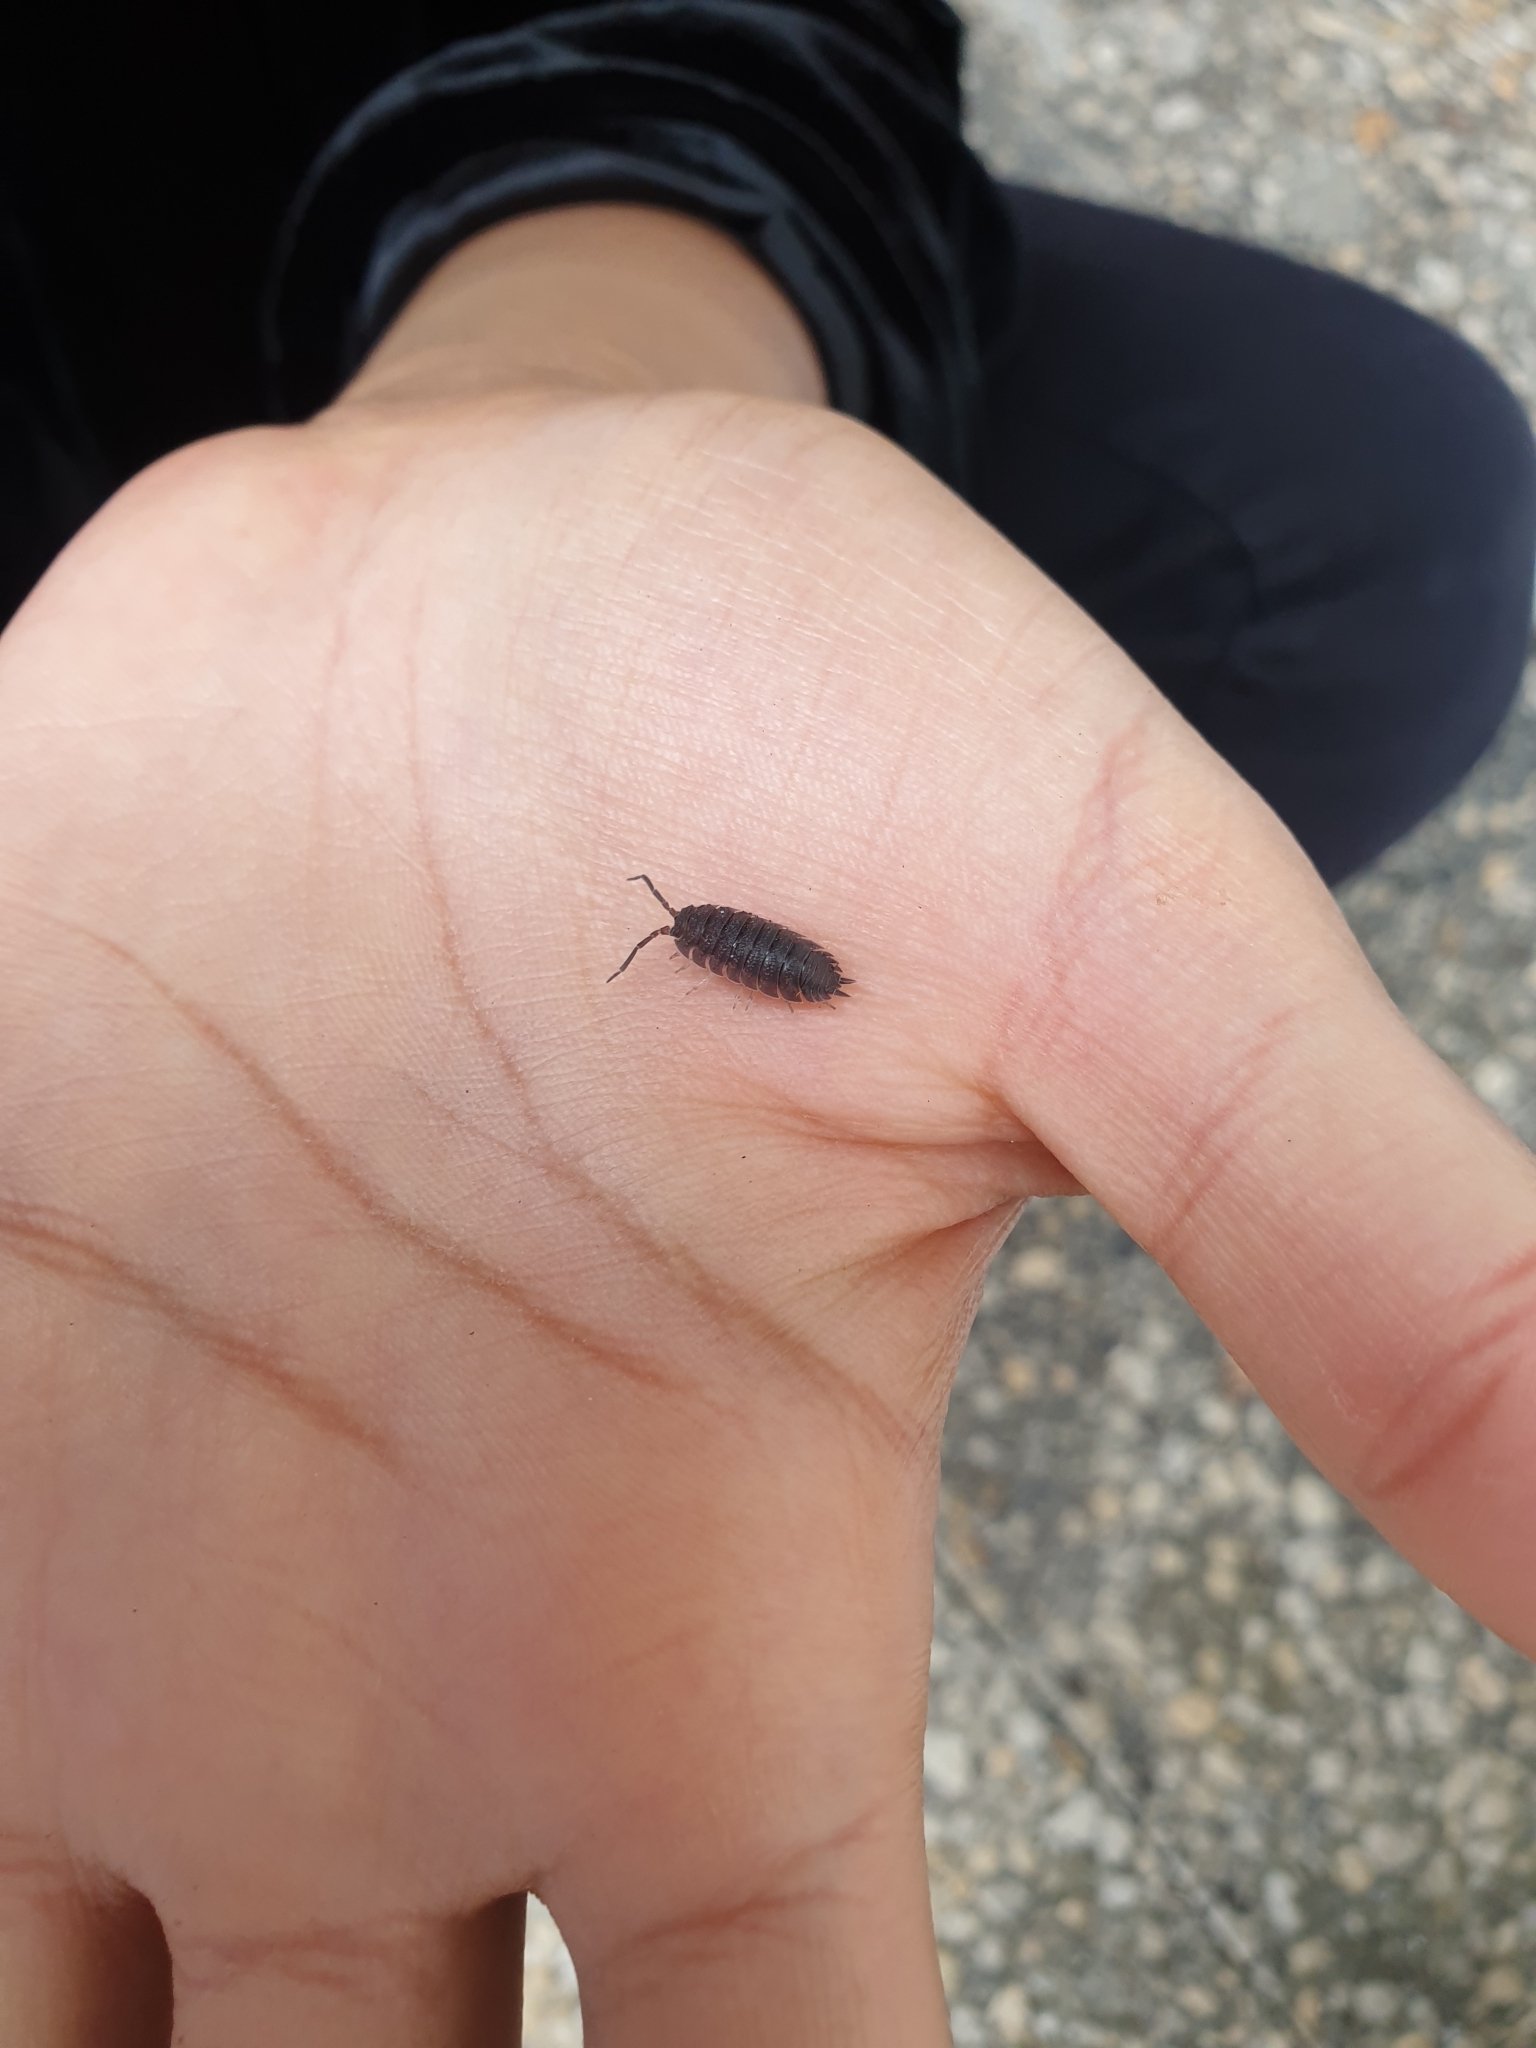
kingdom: Animalia
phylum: Arthropoda
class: Malacostraca
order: Isopoda
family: Porcellionidae
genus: Porcellio
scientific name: Porcellio scaber
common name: Common rough woodlouse
